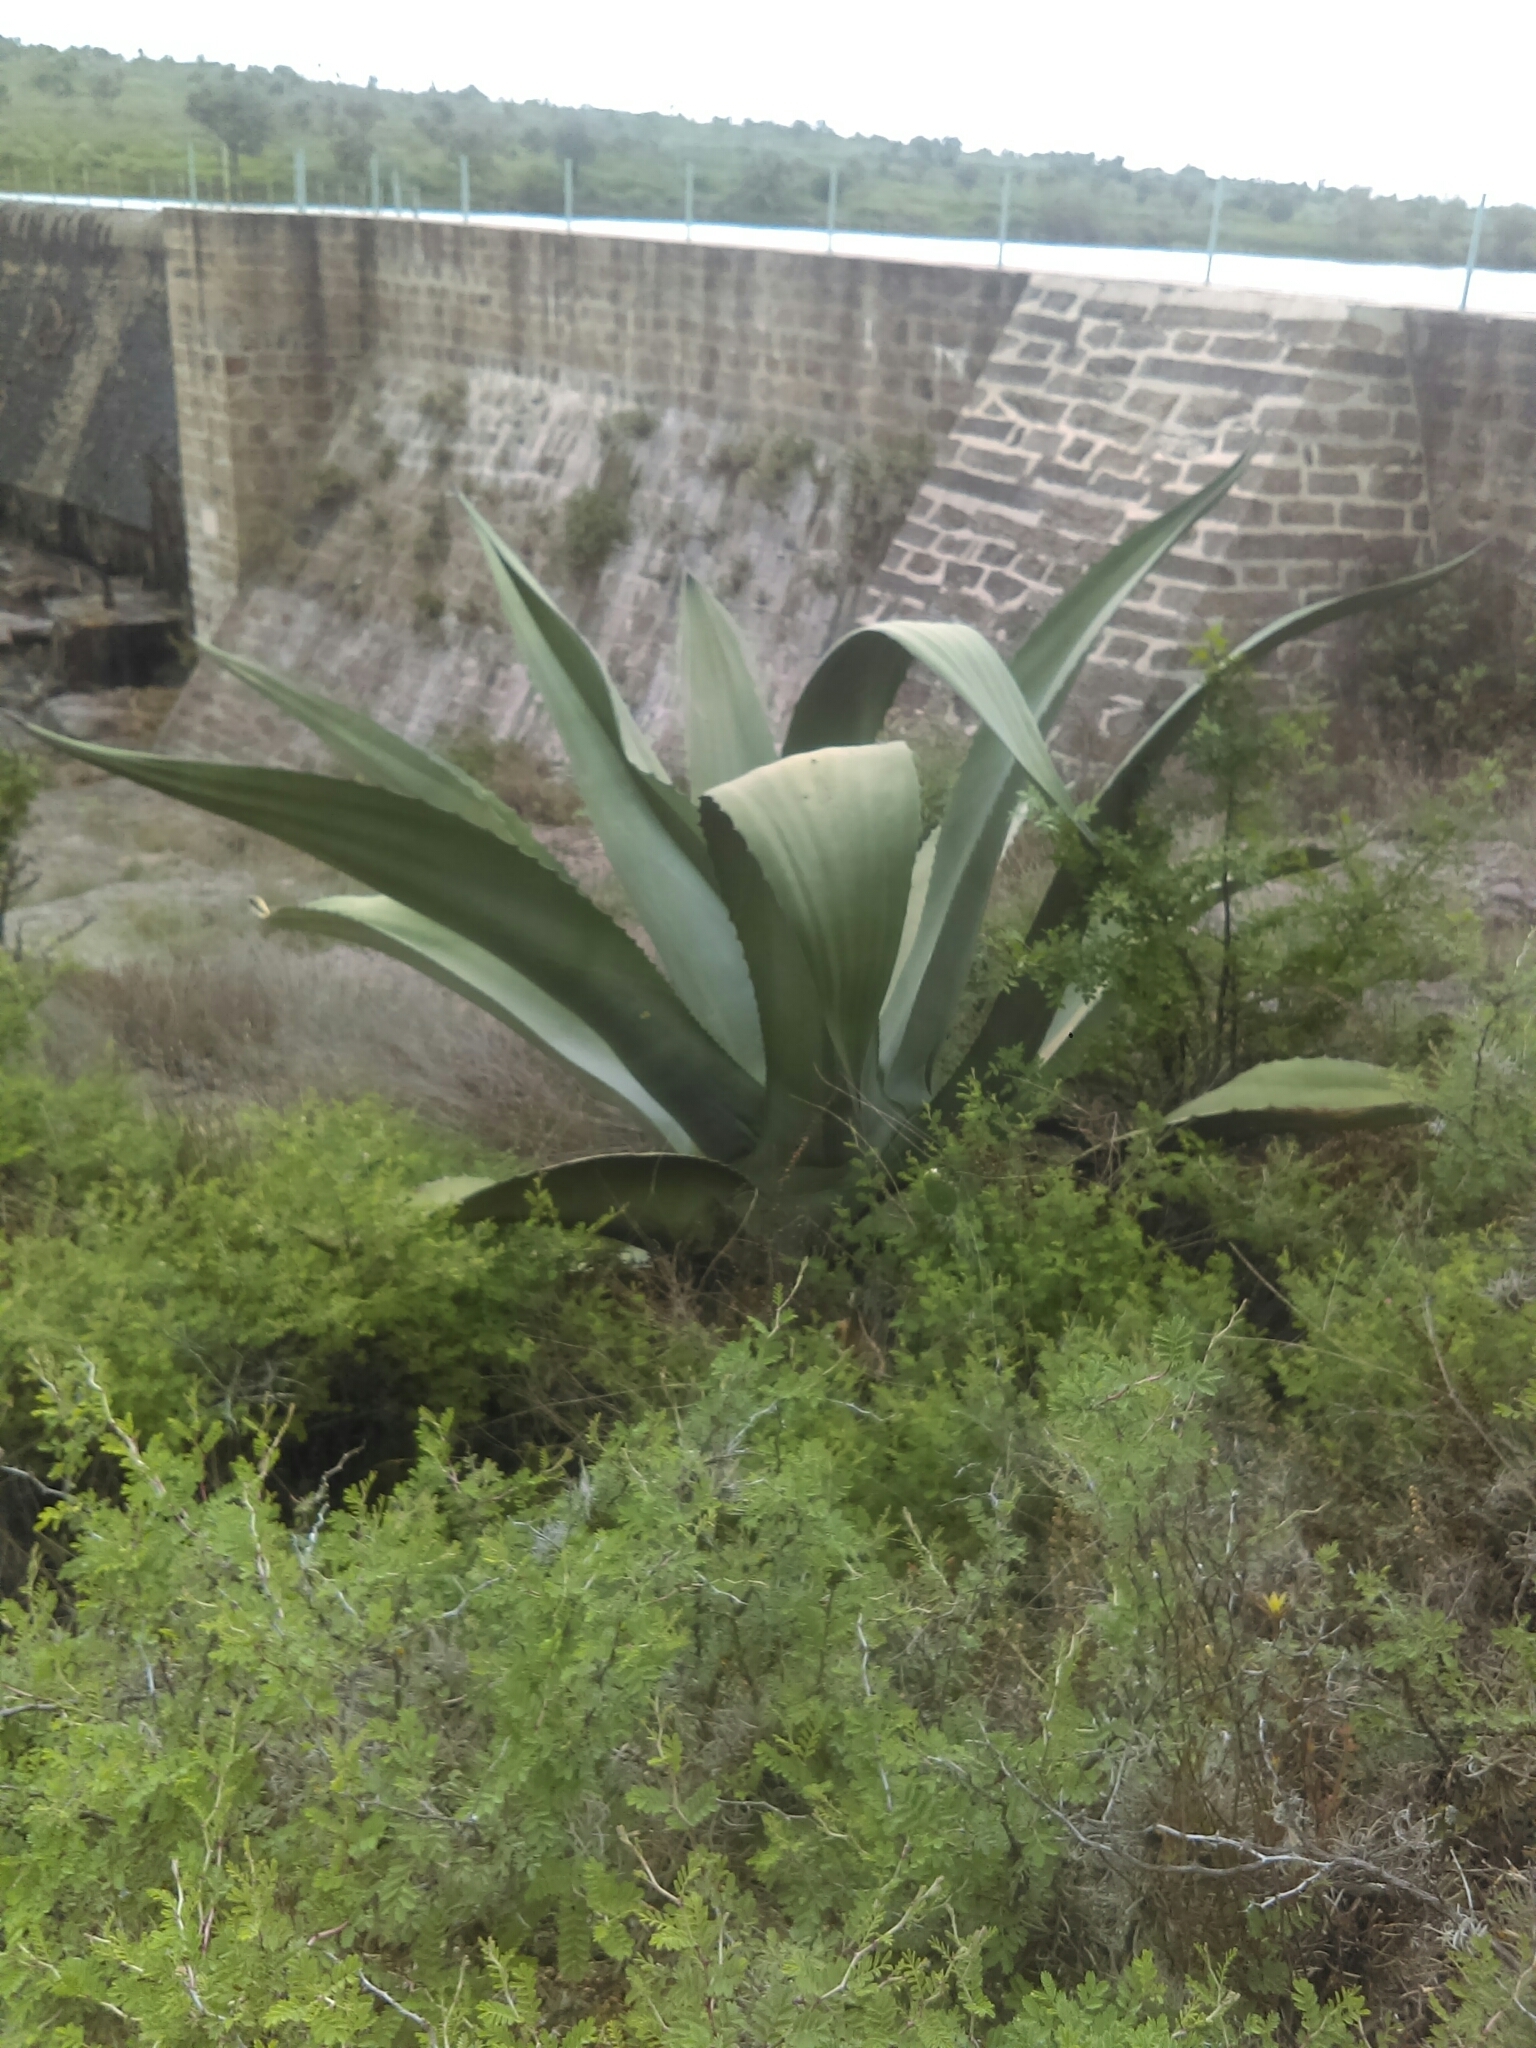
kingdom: Plantae
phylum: Tracheophyta
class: Liliopsida
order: Asparagales
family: Asparagaceae
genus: Agave
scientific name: Agave americana
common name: Centuryplant
